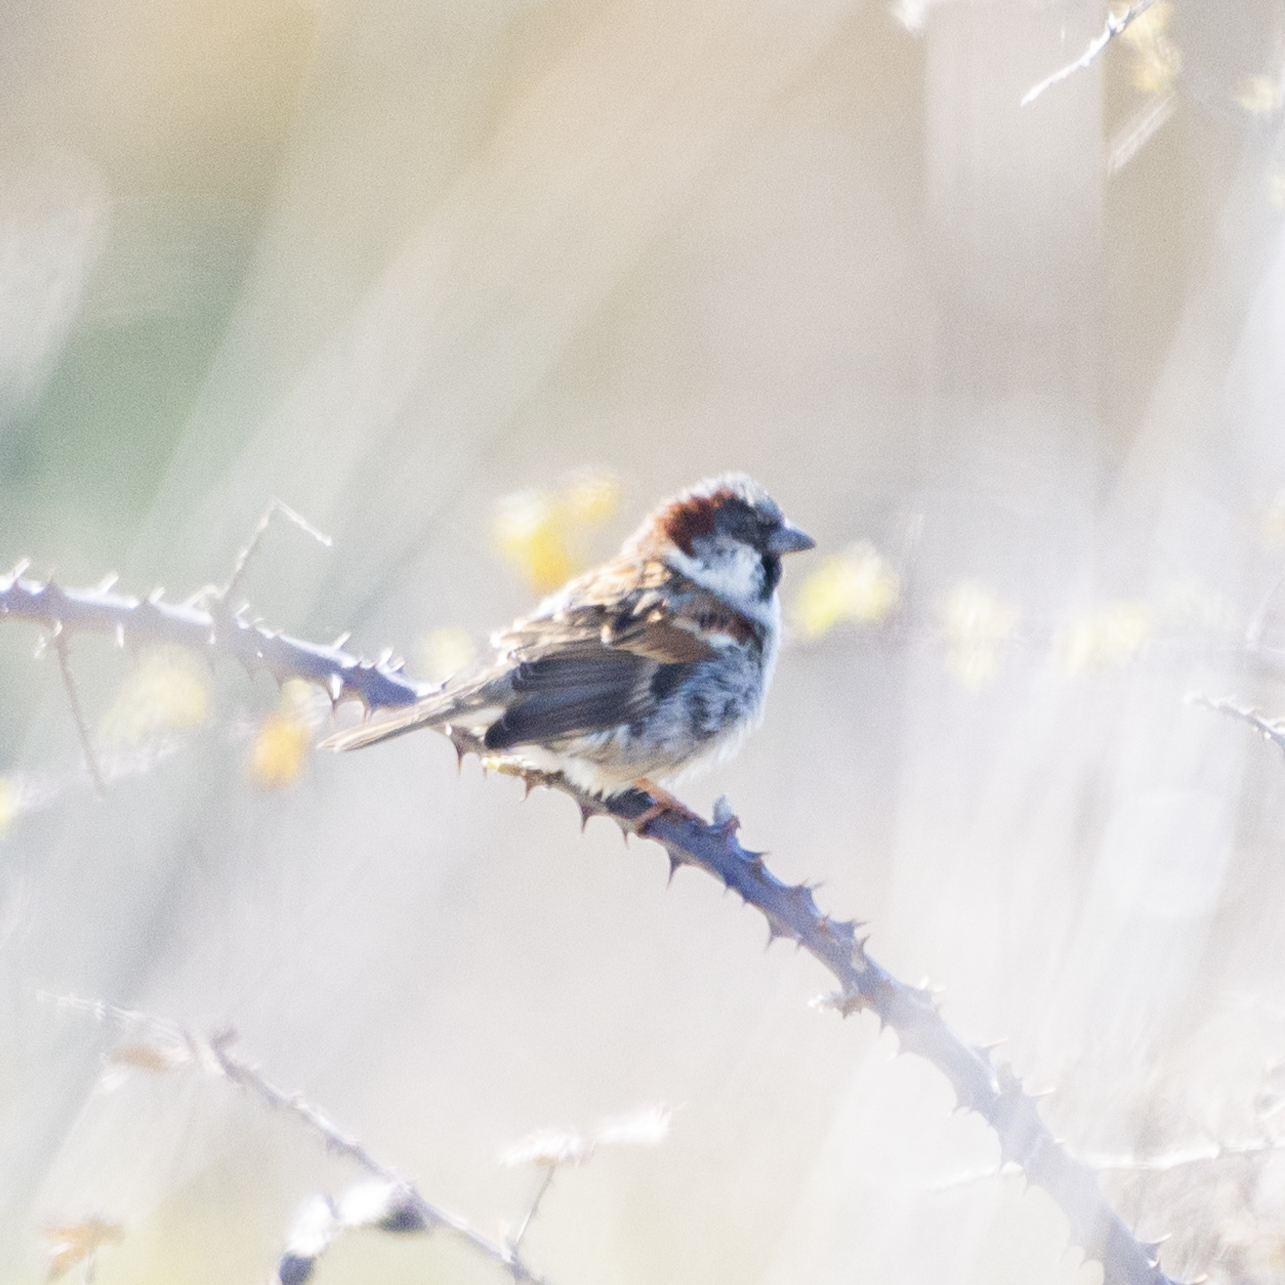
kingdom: Animalia
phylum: Chordata
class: Aves
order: Passeriformes
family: Passeridae
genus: Passer
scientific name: Passer domesticus
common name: House sparrow
